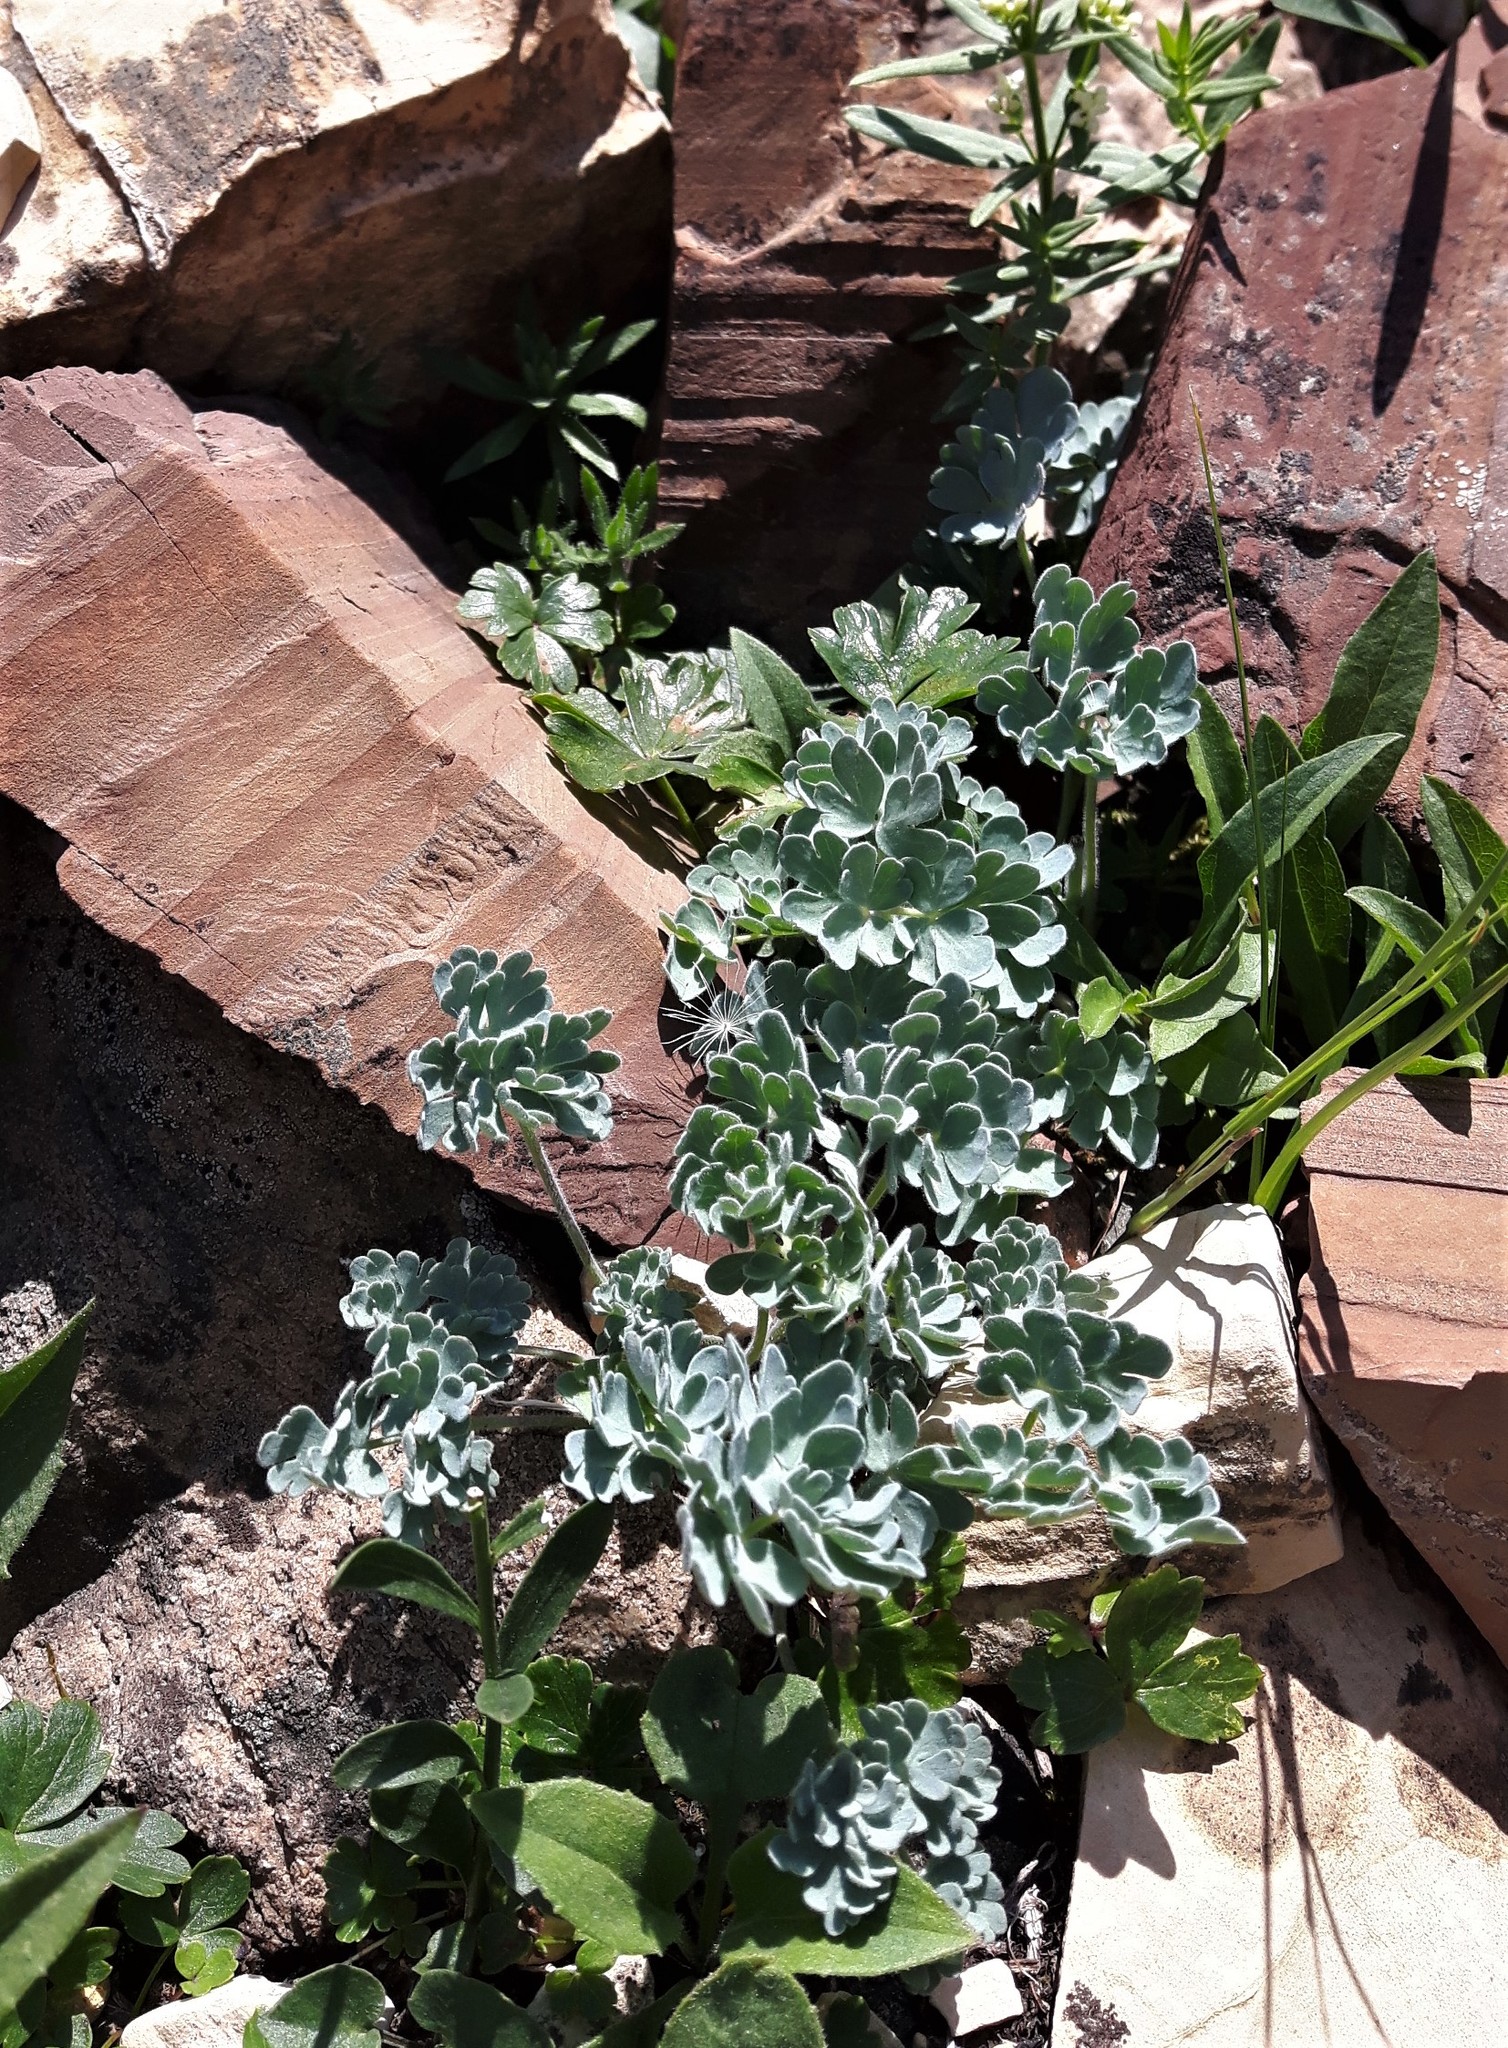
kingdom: Plantae
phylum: Tracheophyta
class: Magnoliopsida
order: Ranunculales
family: Ranunculaceae
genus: Aquilegia
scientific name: Aquilegia jonesii
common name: Jones' columbine
